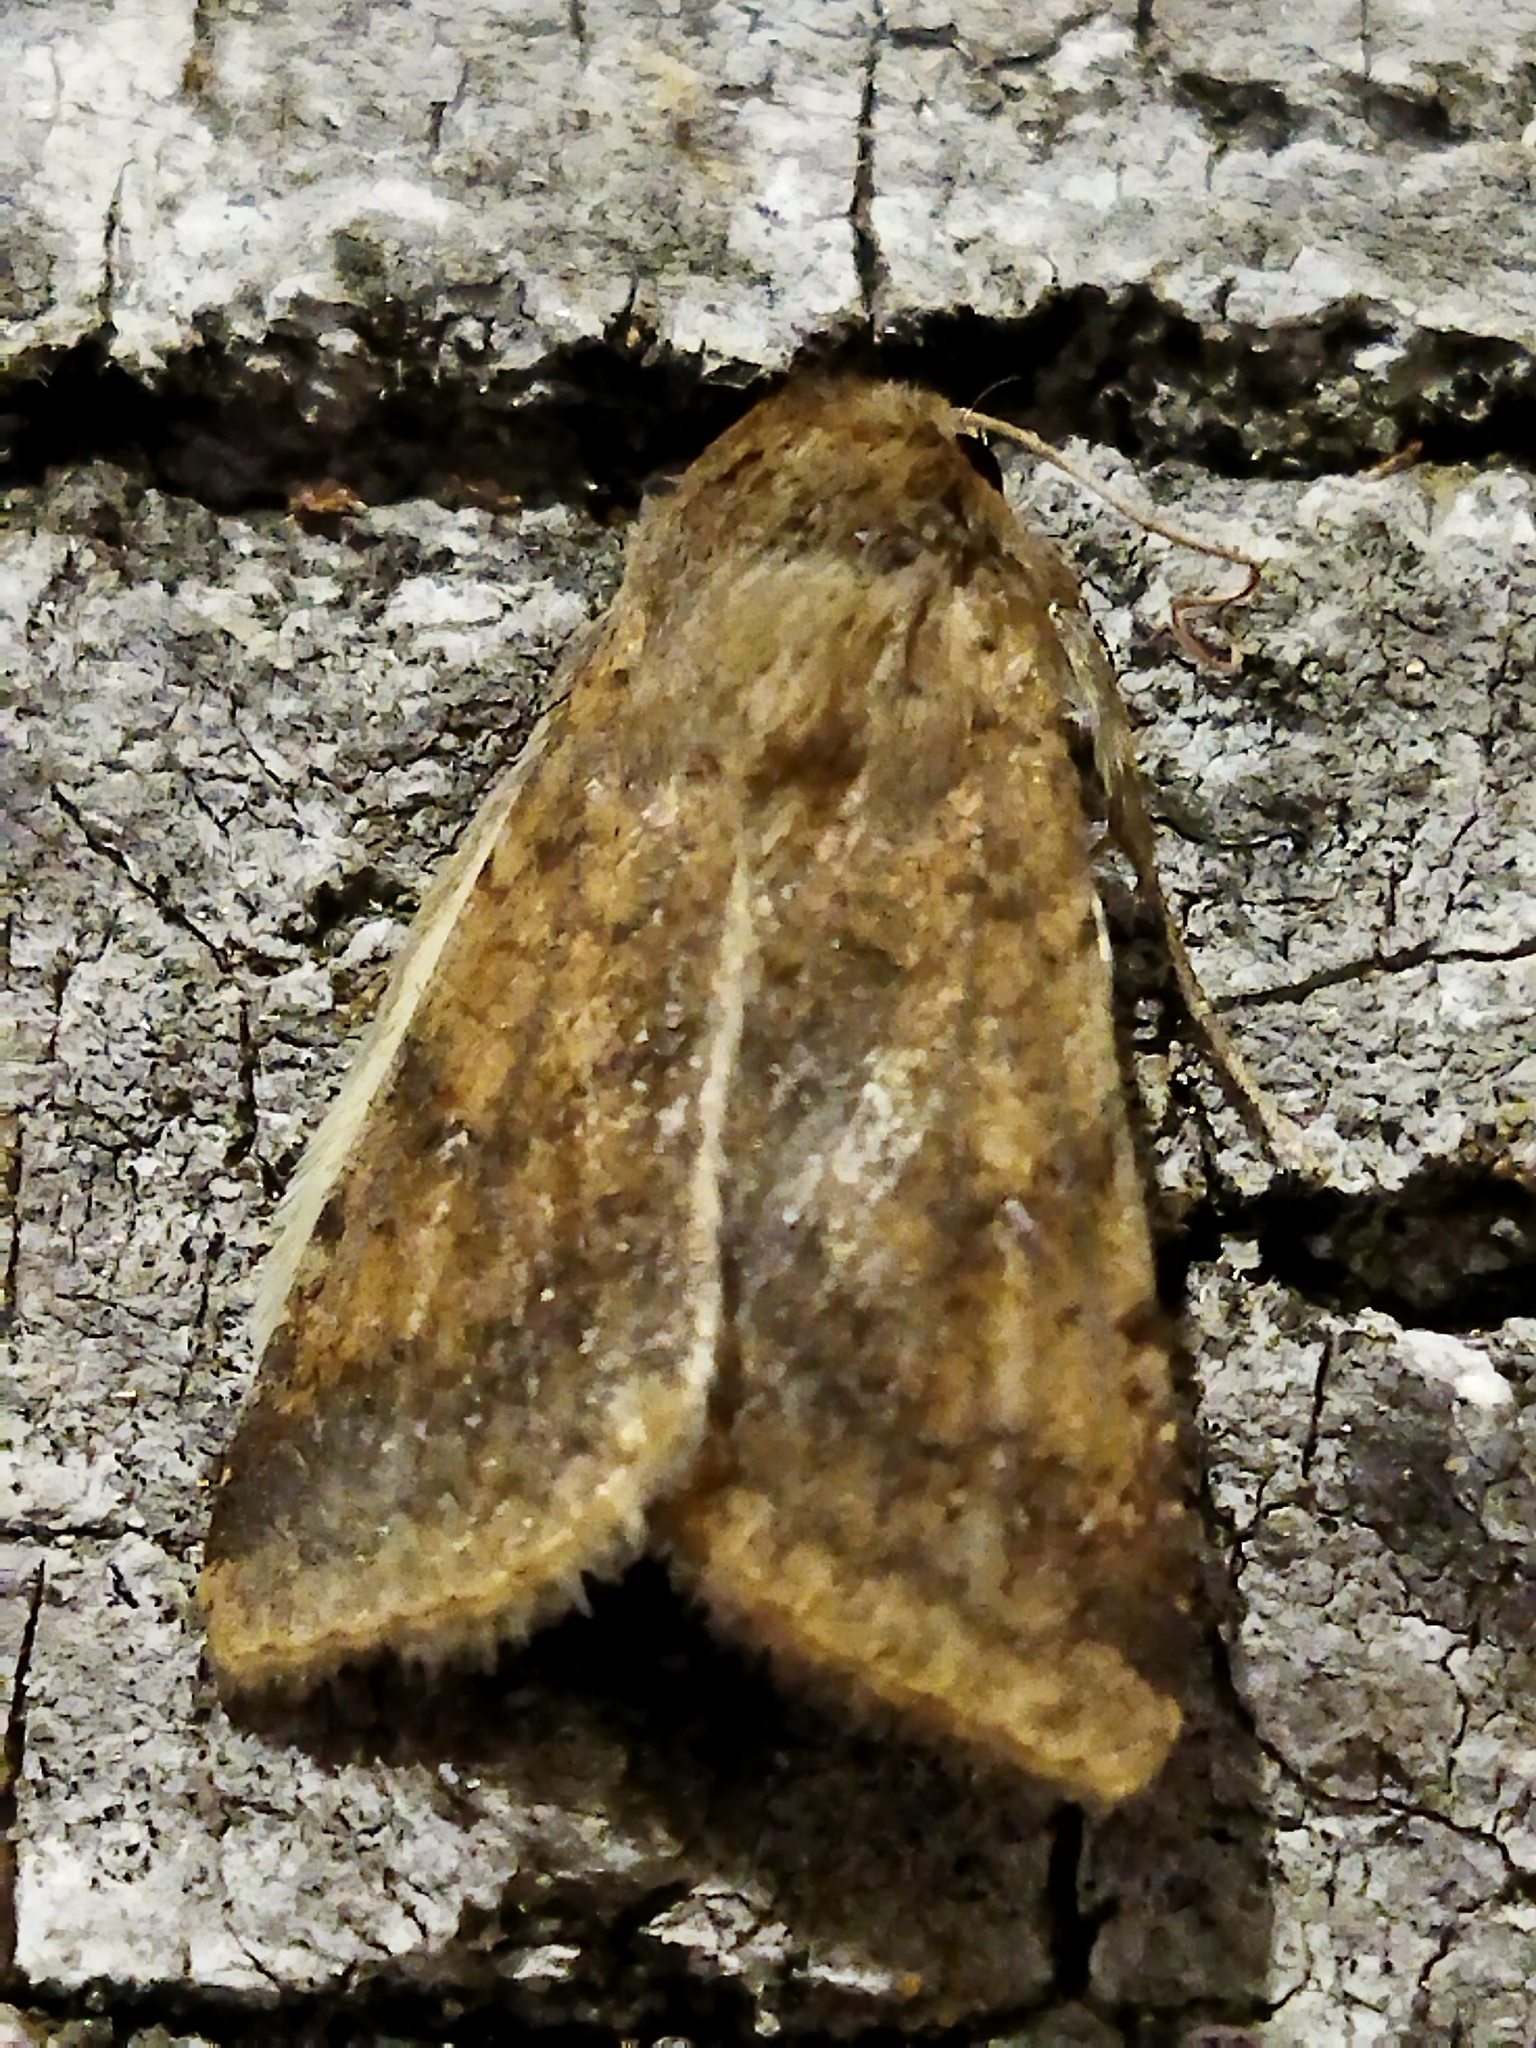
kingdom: Animalia
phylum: Arthropoda
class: Insecta
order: Lepidoptera
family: Noctuidae
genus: Helicoverpa
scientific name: Helicoverpa armigera
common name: Cotton bollworm
